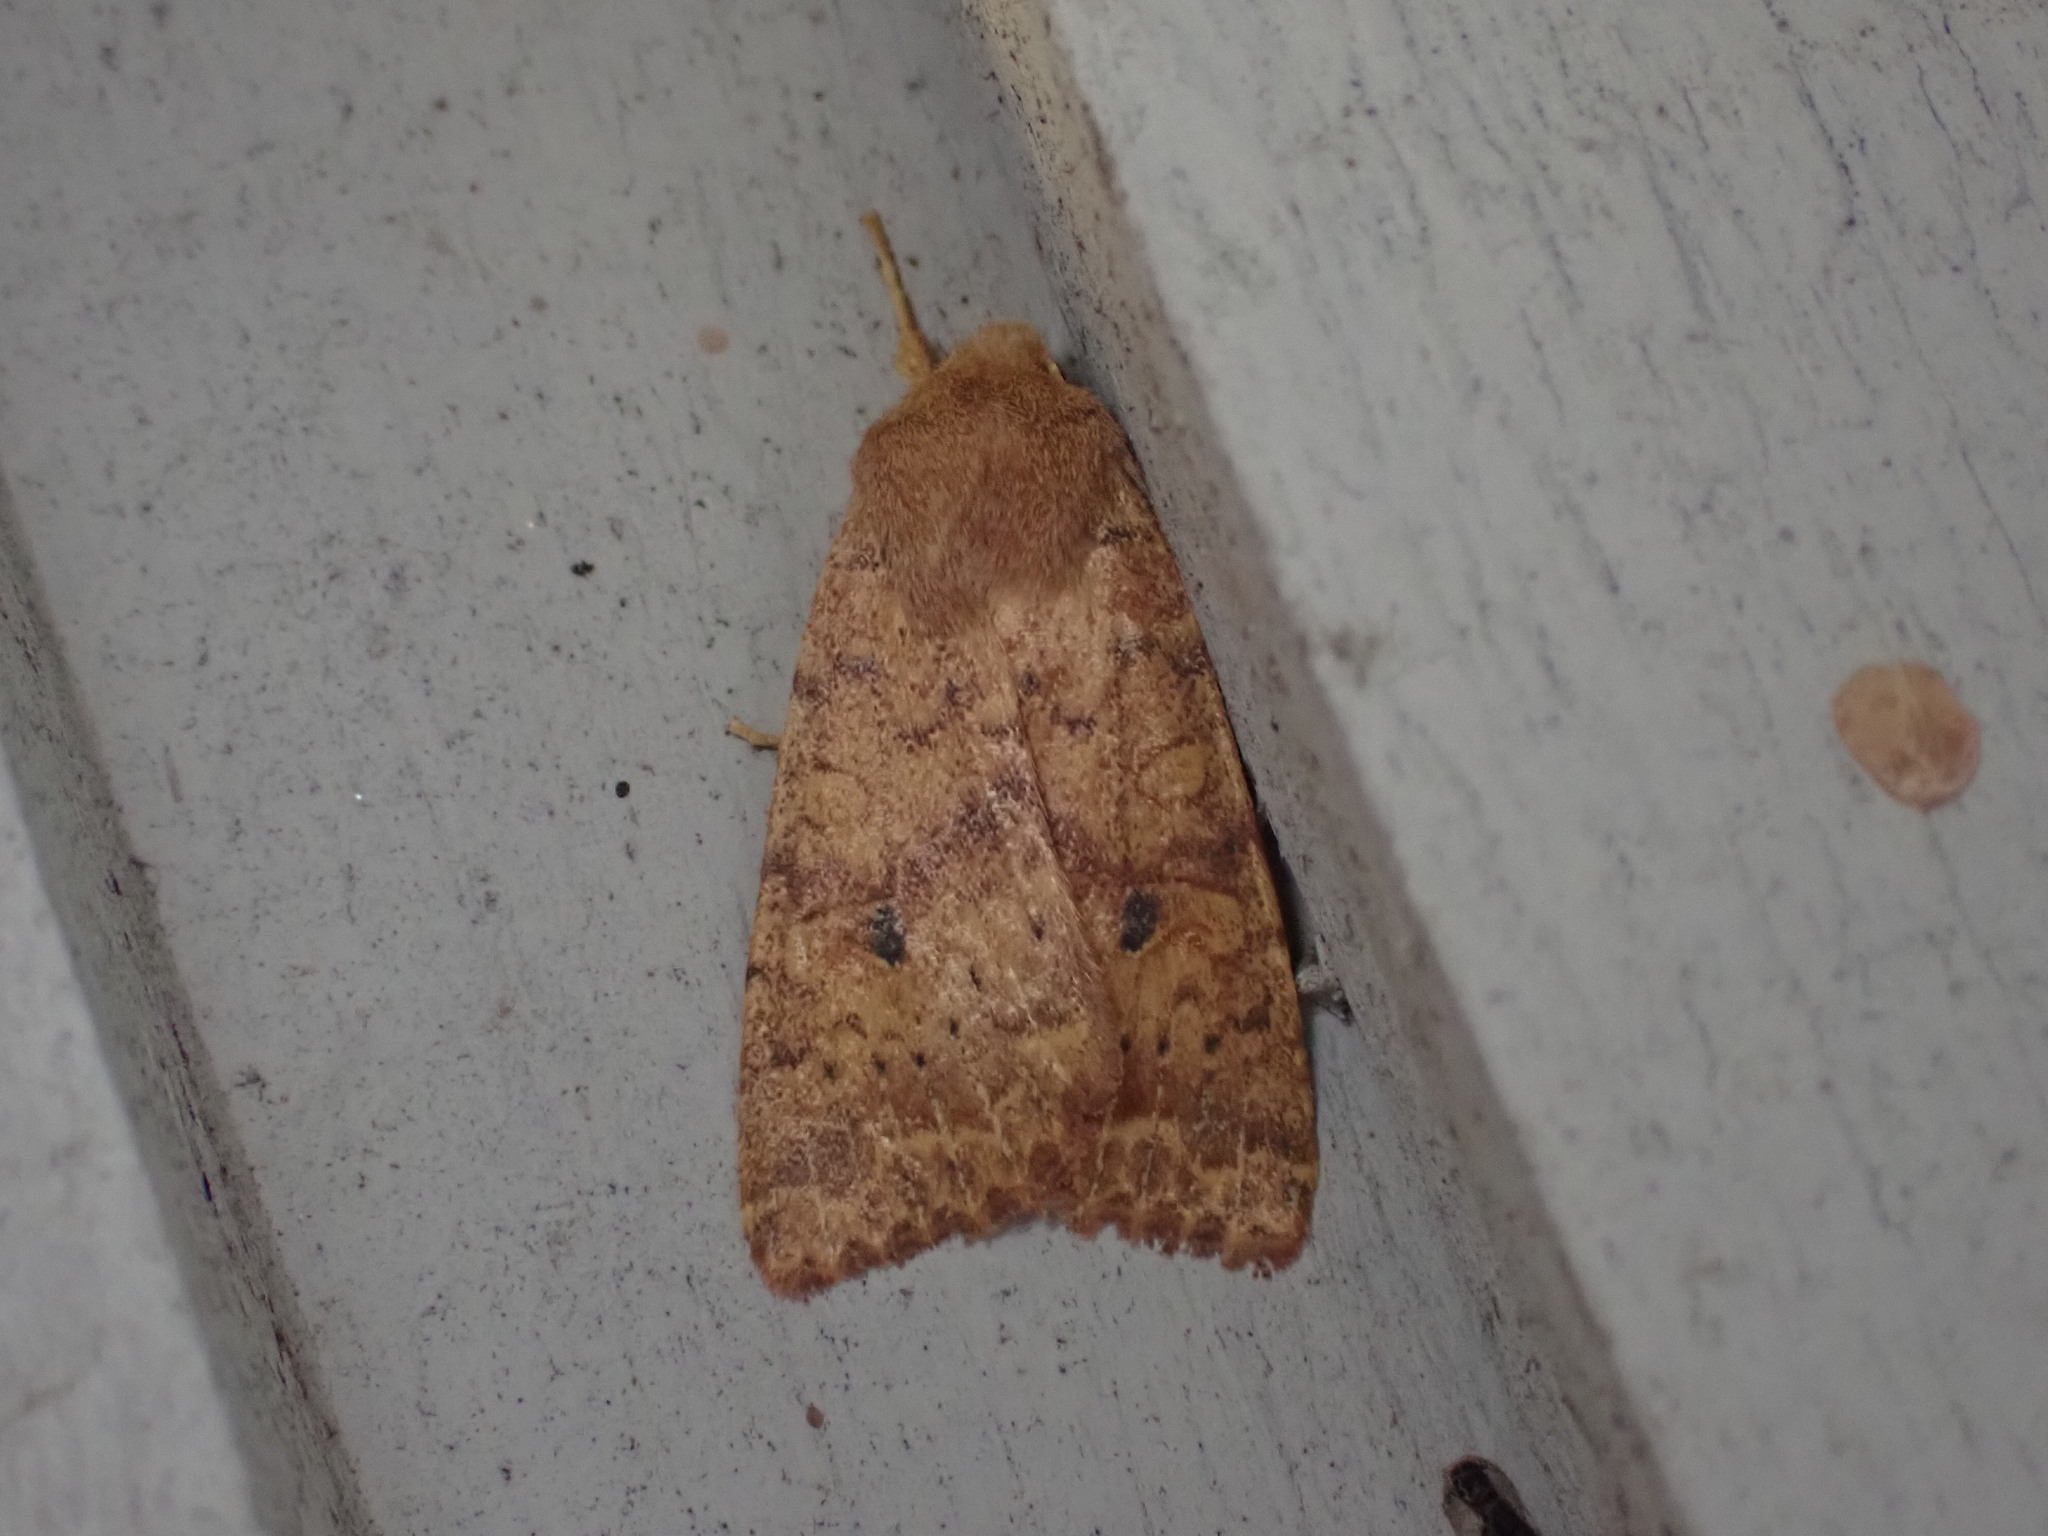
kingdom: Animalia
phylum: Arthropoda
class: Insecta
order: Lepidoptera
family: Noctuidae
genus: Agrochola
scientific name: Agrochola bicolorago
